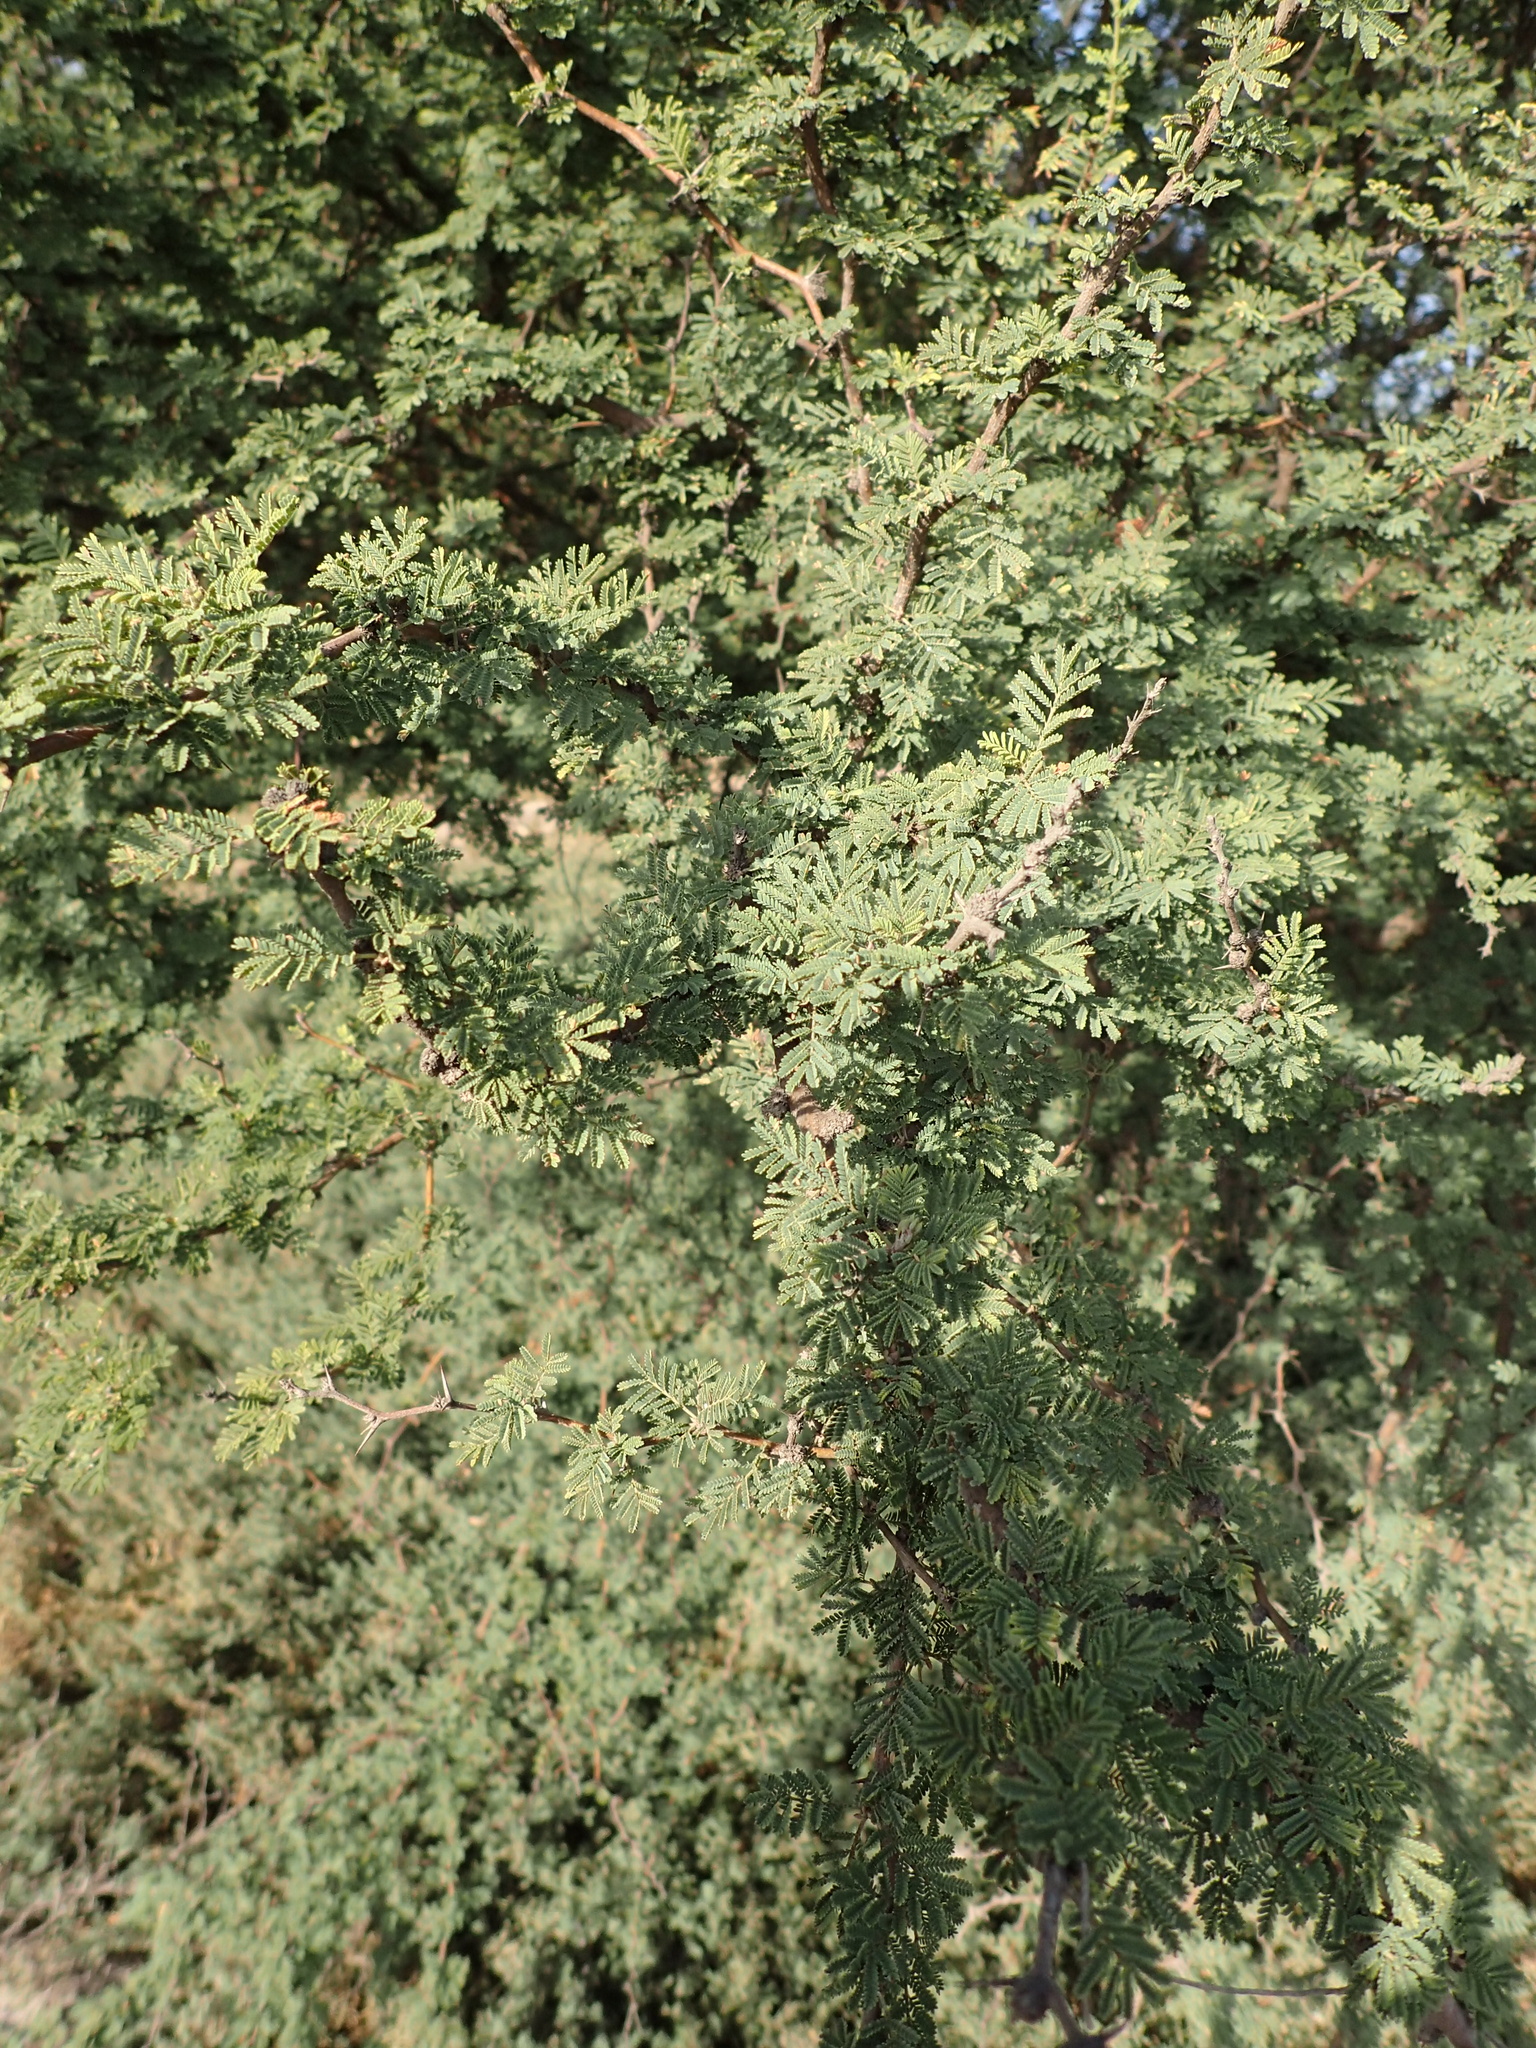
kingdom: Plantae
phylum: Tracheophyta
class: Magnoliopsida
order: Fabales
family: Fabaceae
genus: Vachellia
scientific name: Vachellia caven
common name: Roman cassie
